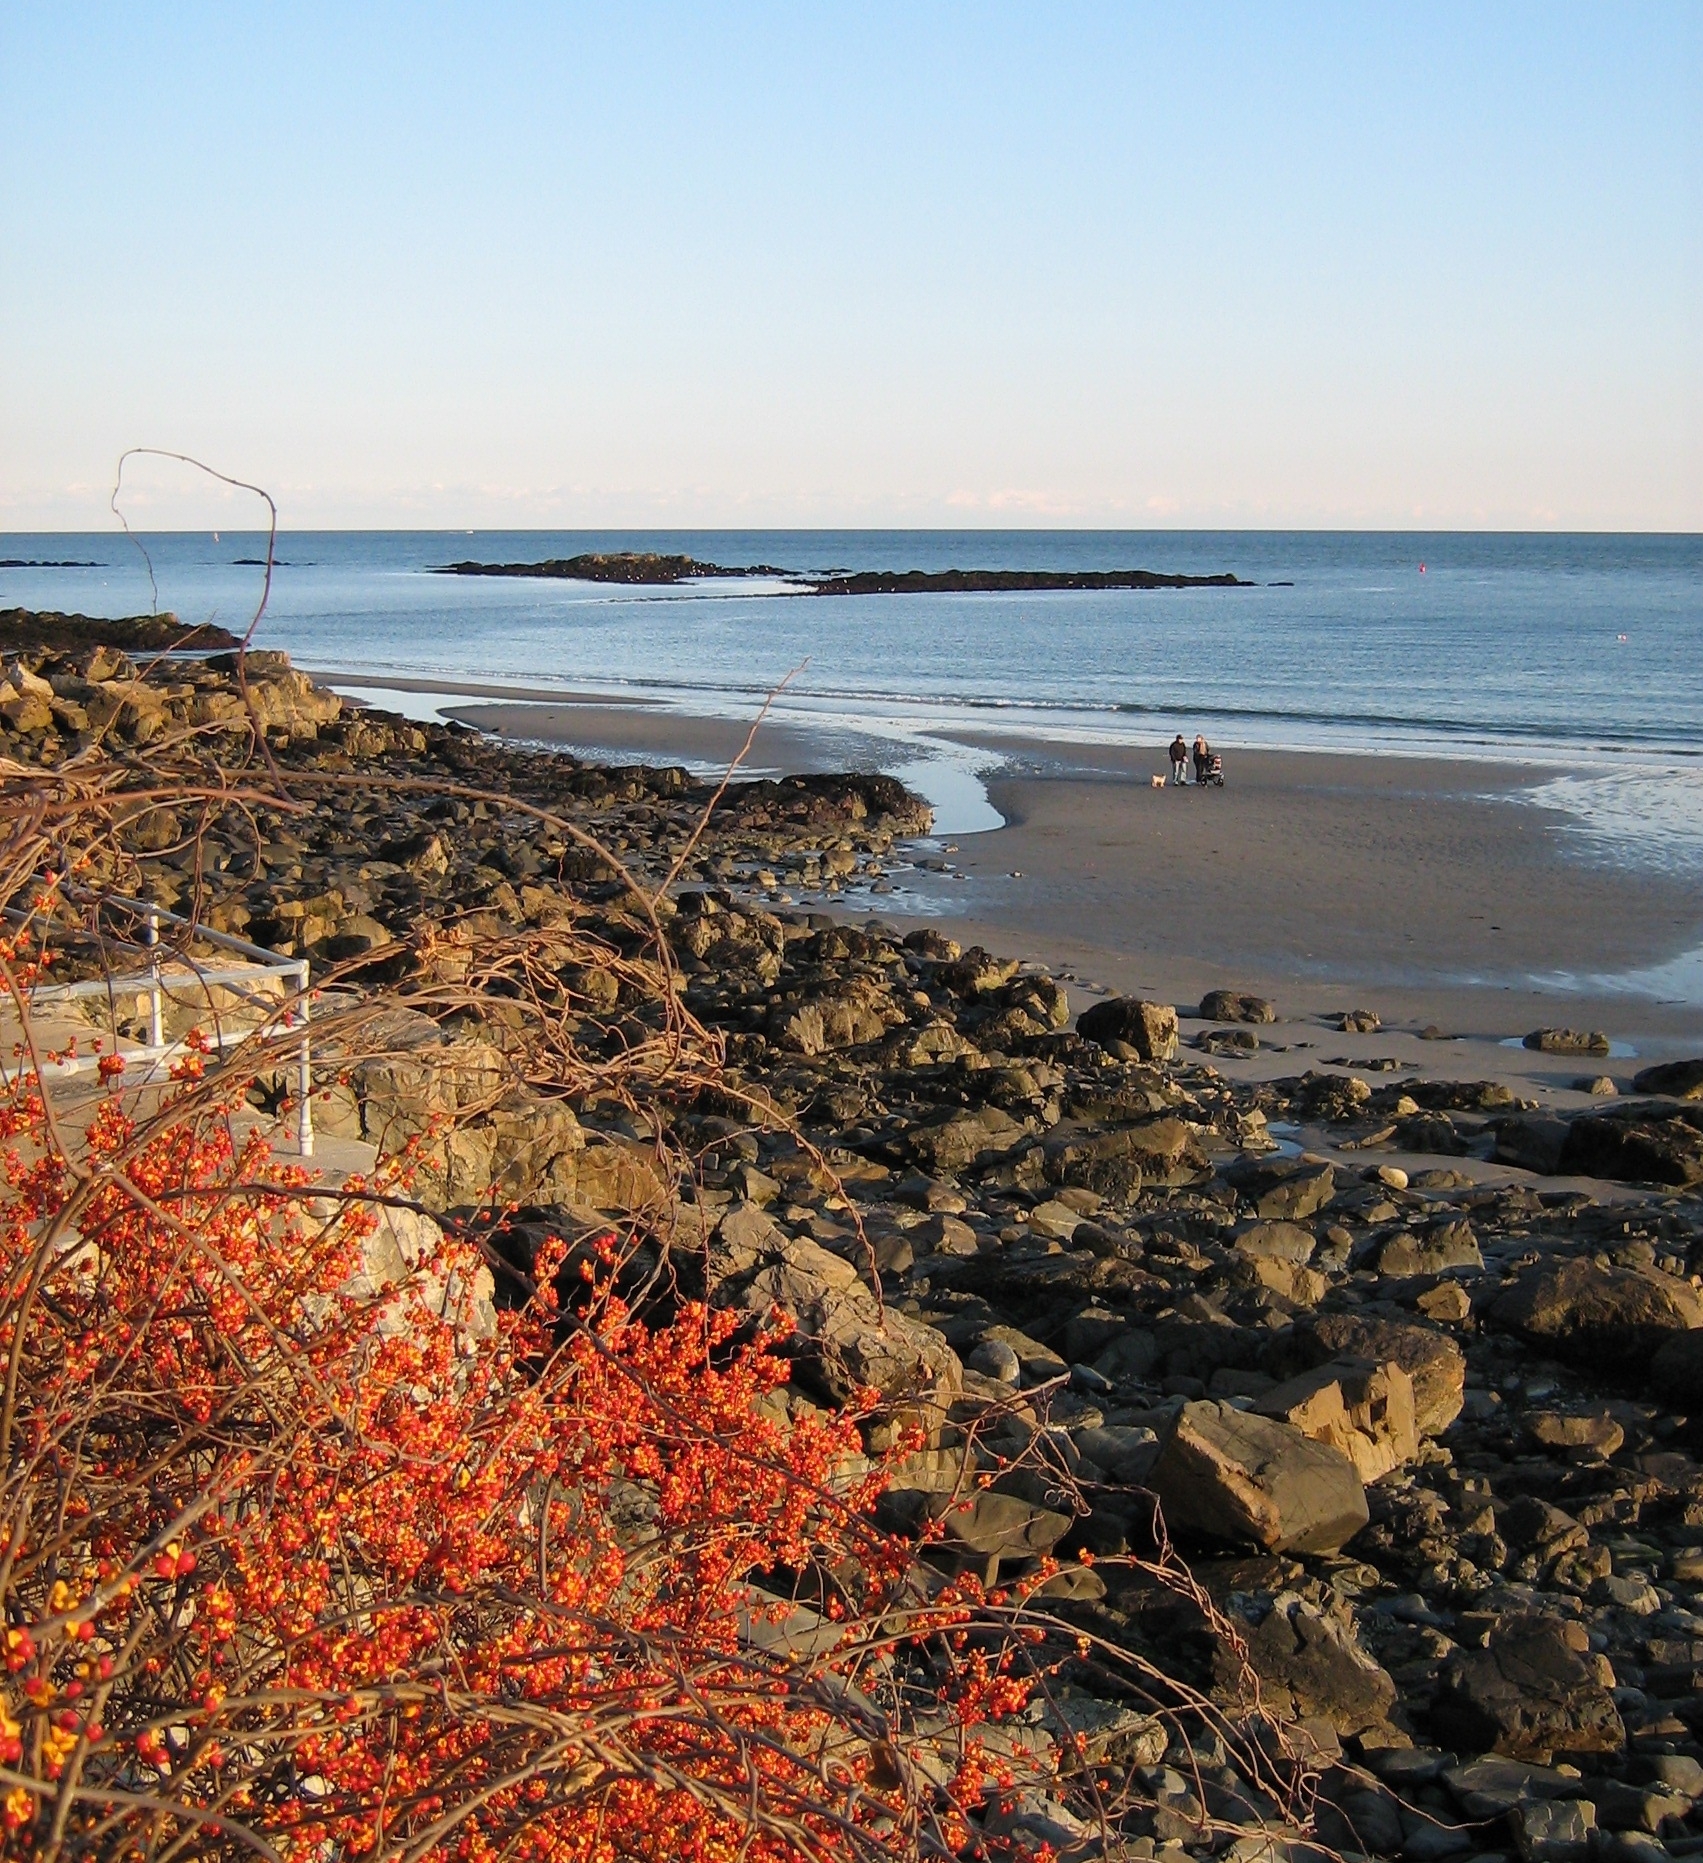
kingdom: Plantae
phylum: Tracheophyta
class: Magnoliopsida
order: Celastrales
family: Celastraceae
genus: Celastrus
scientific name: Celastrus orbiculatus
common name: Oriental bittersweet
